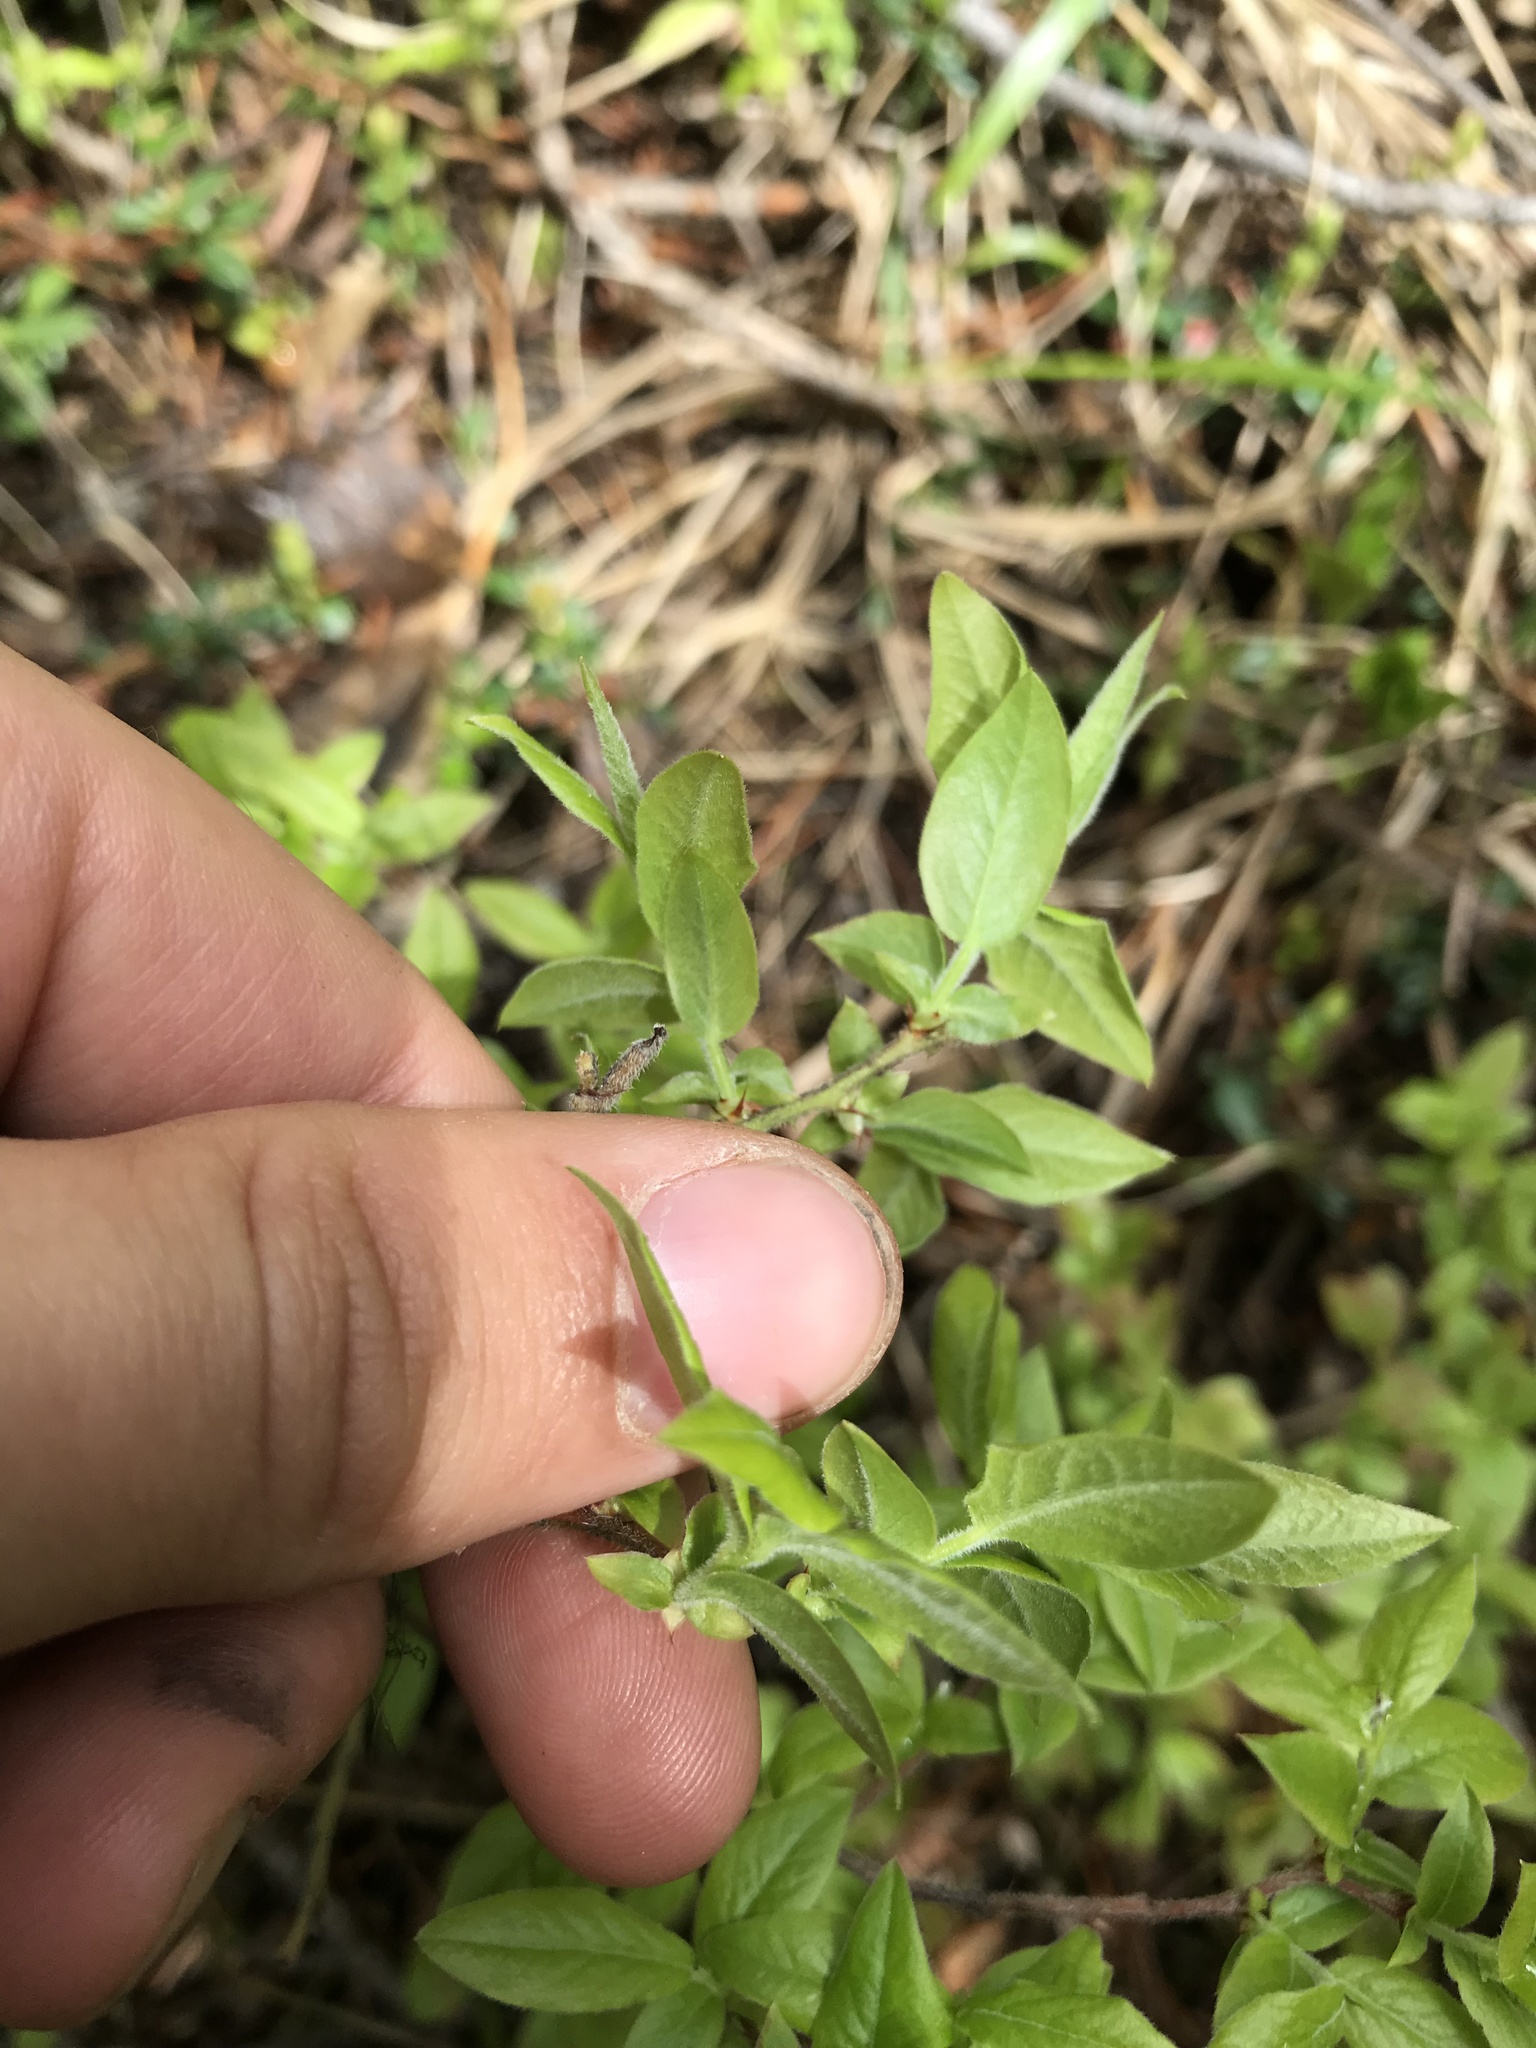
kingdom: Plantae
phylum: Tracheophyta
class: Magnoliopsida
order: Ericales
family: Ericaceae
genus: Vaccinium
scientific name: Vaccinium myrtilloides
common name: Canada blueberry
